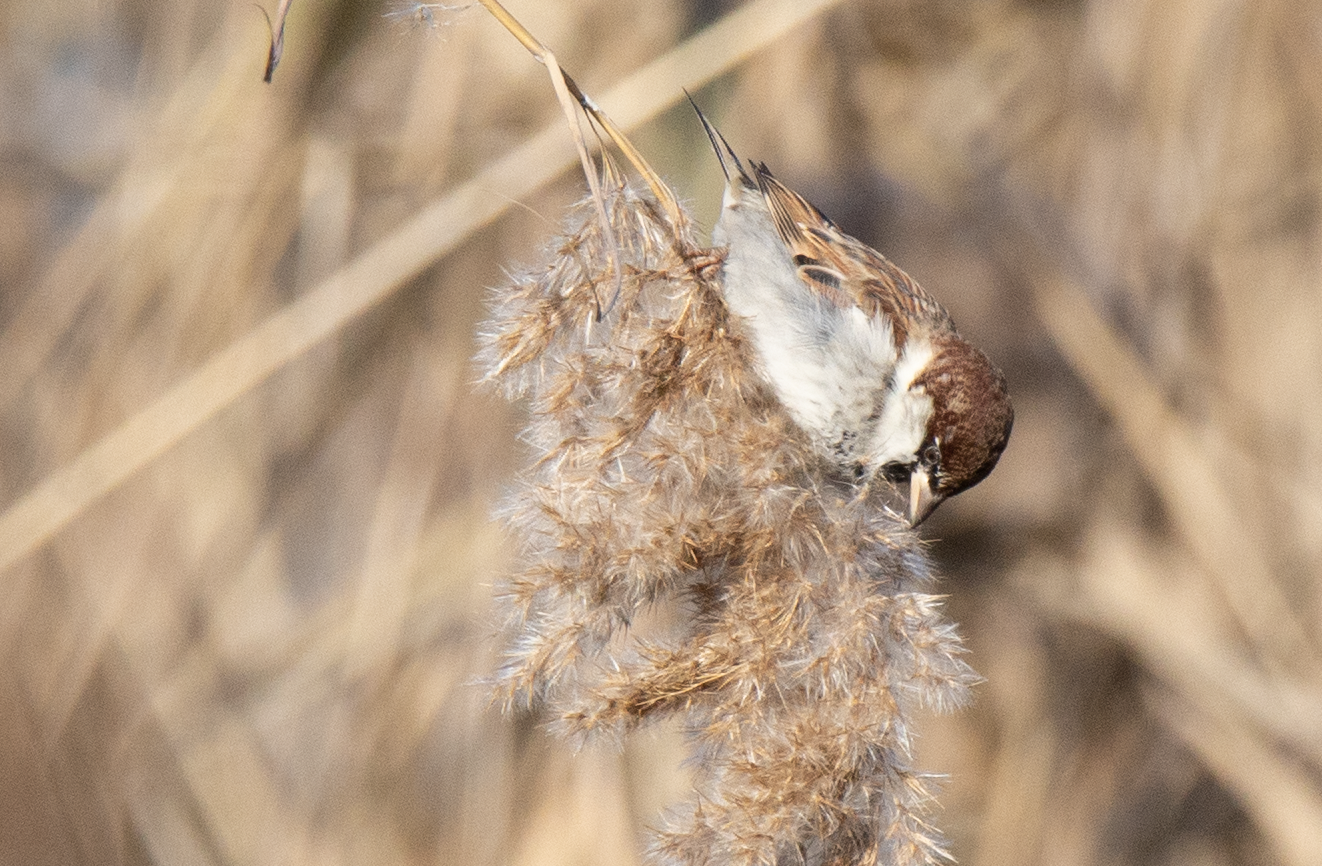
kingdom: Animalia
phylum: Chordata
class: Aves
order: Passeriformes
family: Passeridae
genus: Passer
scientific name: Passer italiae
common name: Italian sparrow
